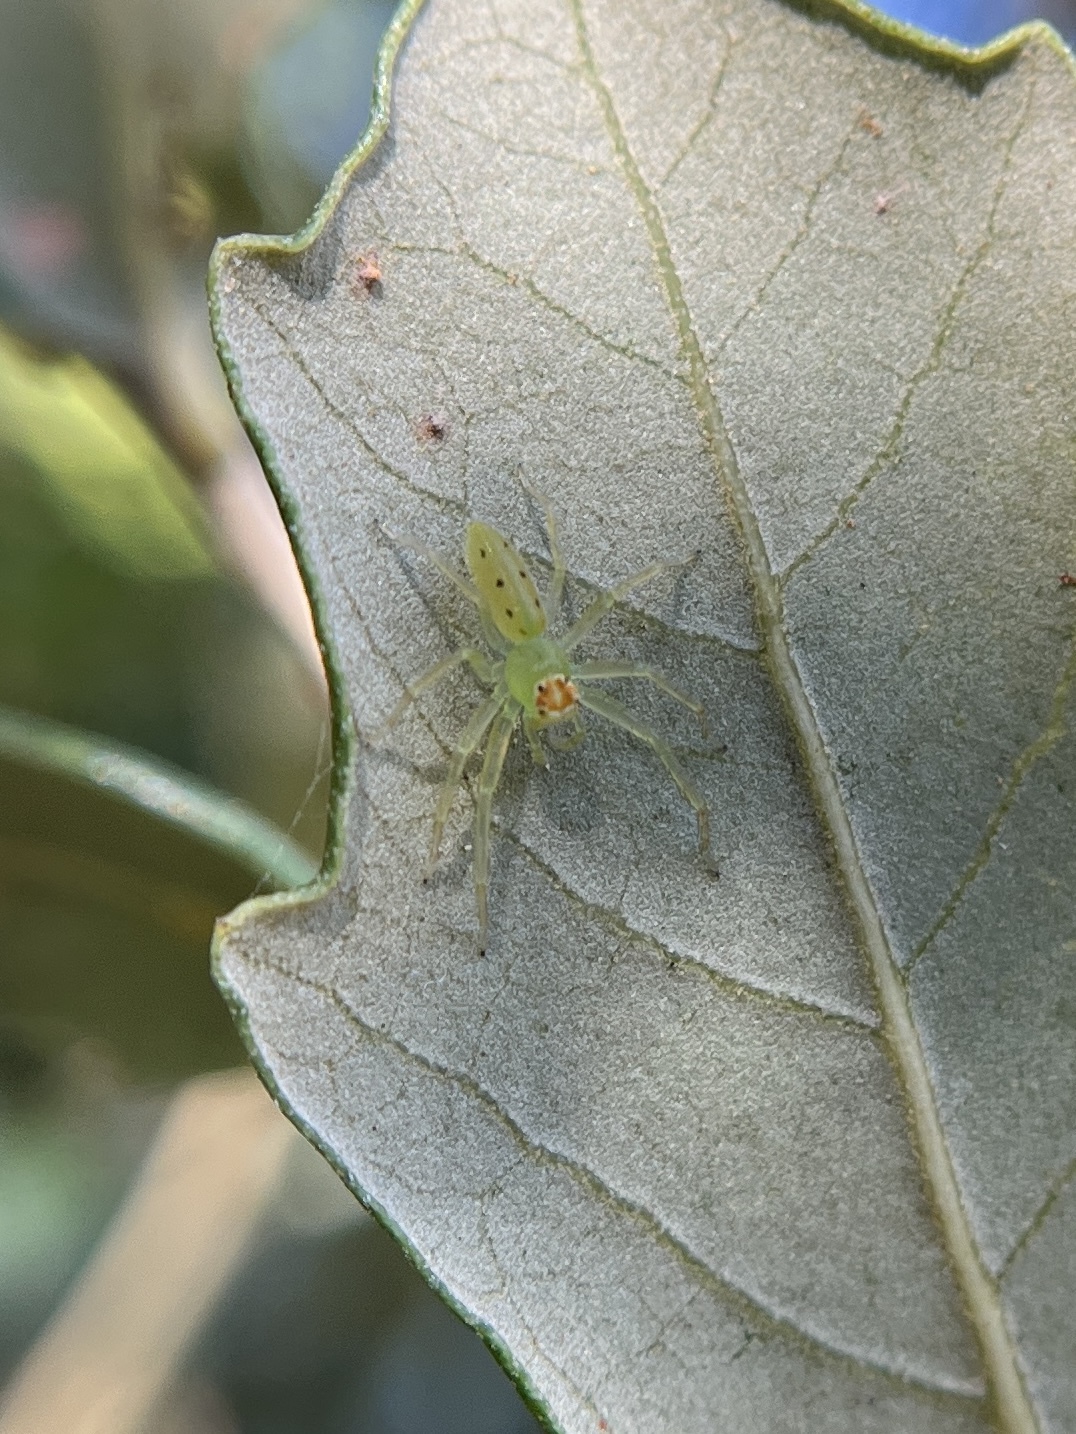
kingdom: Animalia
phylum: Arthropoda
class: Arachnida
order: Araneae
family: Salticidae
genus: Lyssomanes
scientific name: Lyssomanes viridis
